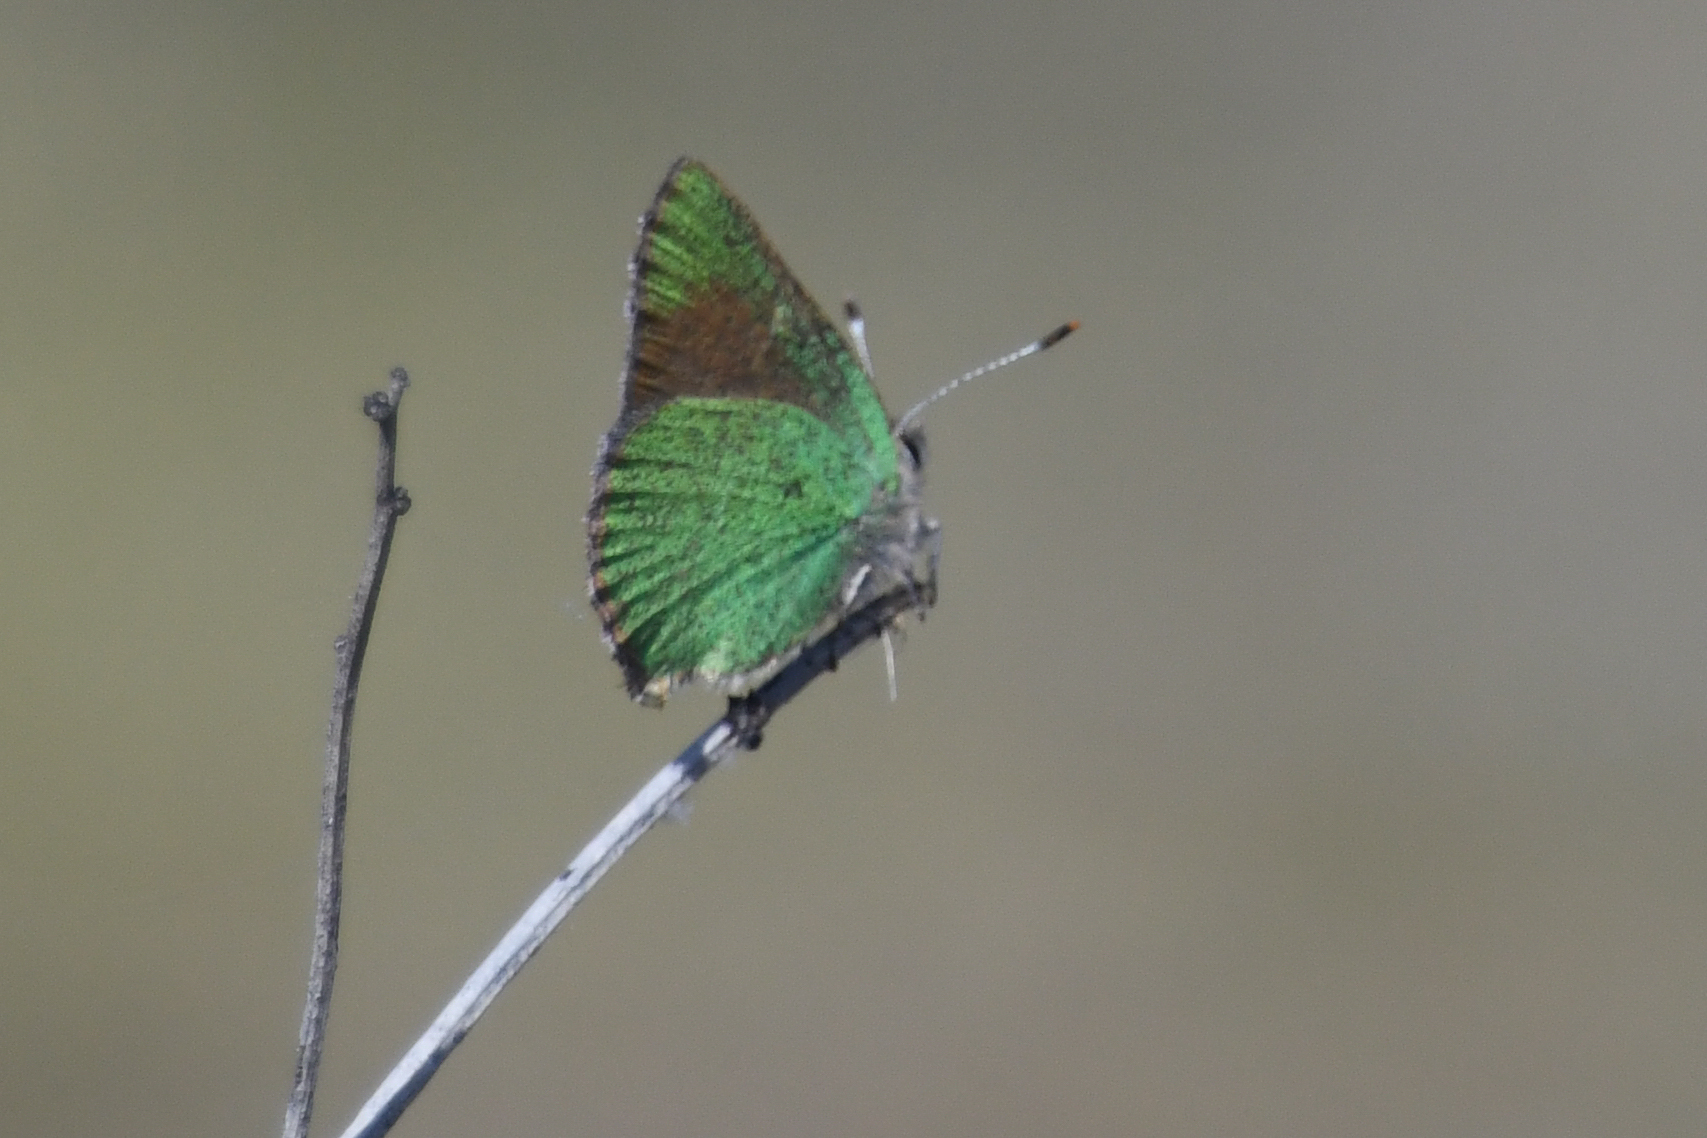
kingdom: Animalia
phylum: Arthropoda
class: Insecta
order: Lepidoptera
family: Lycaenidae
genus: Callophrys
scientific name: Callophrys dumetorum
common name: Bramble hairstreak
